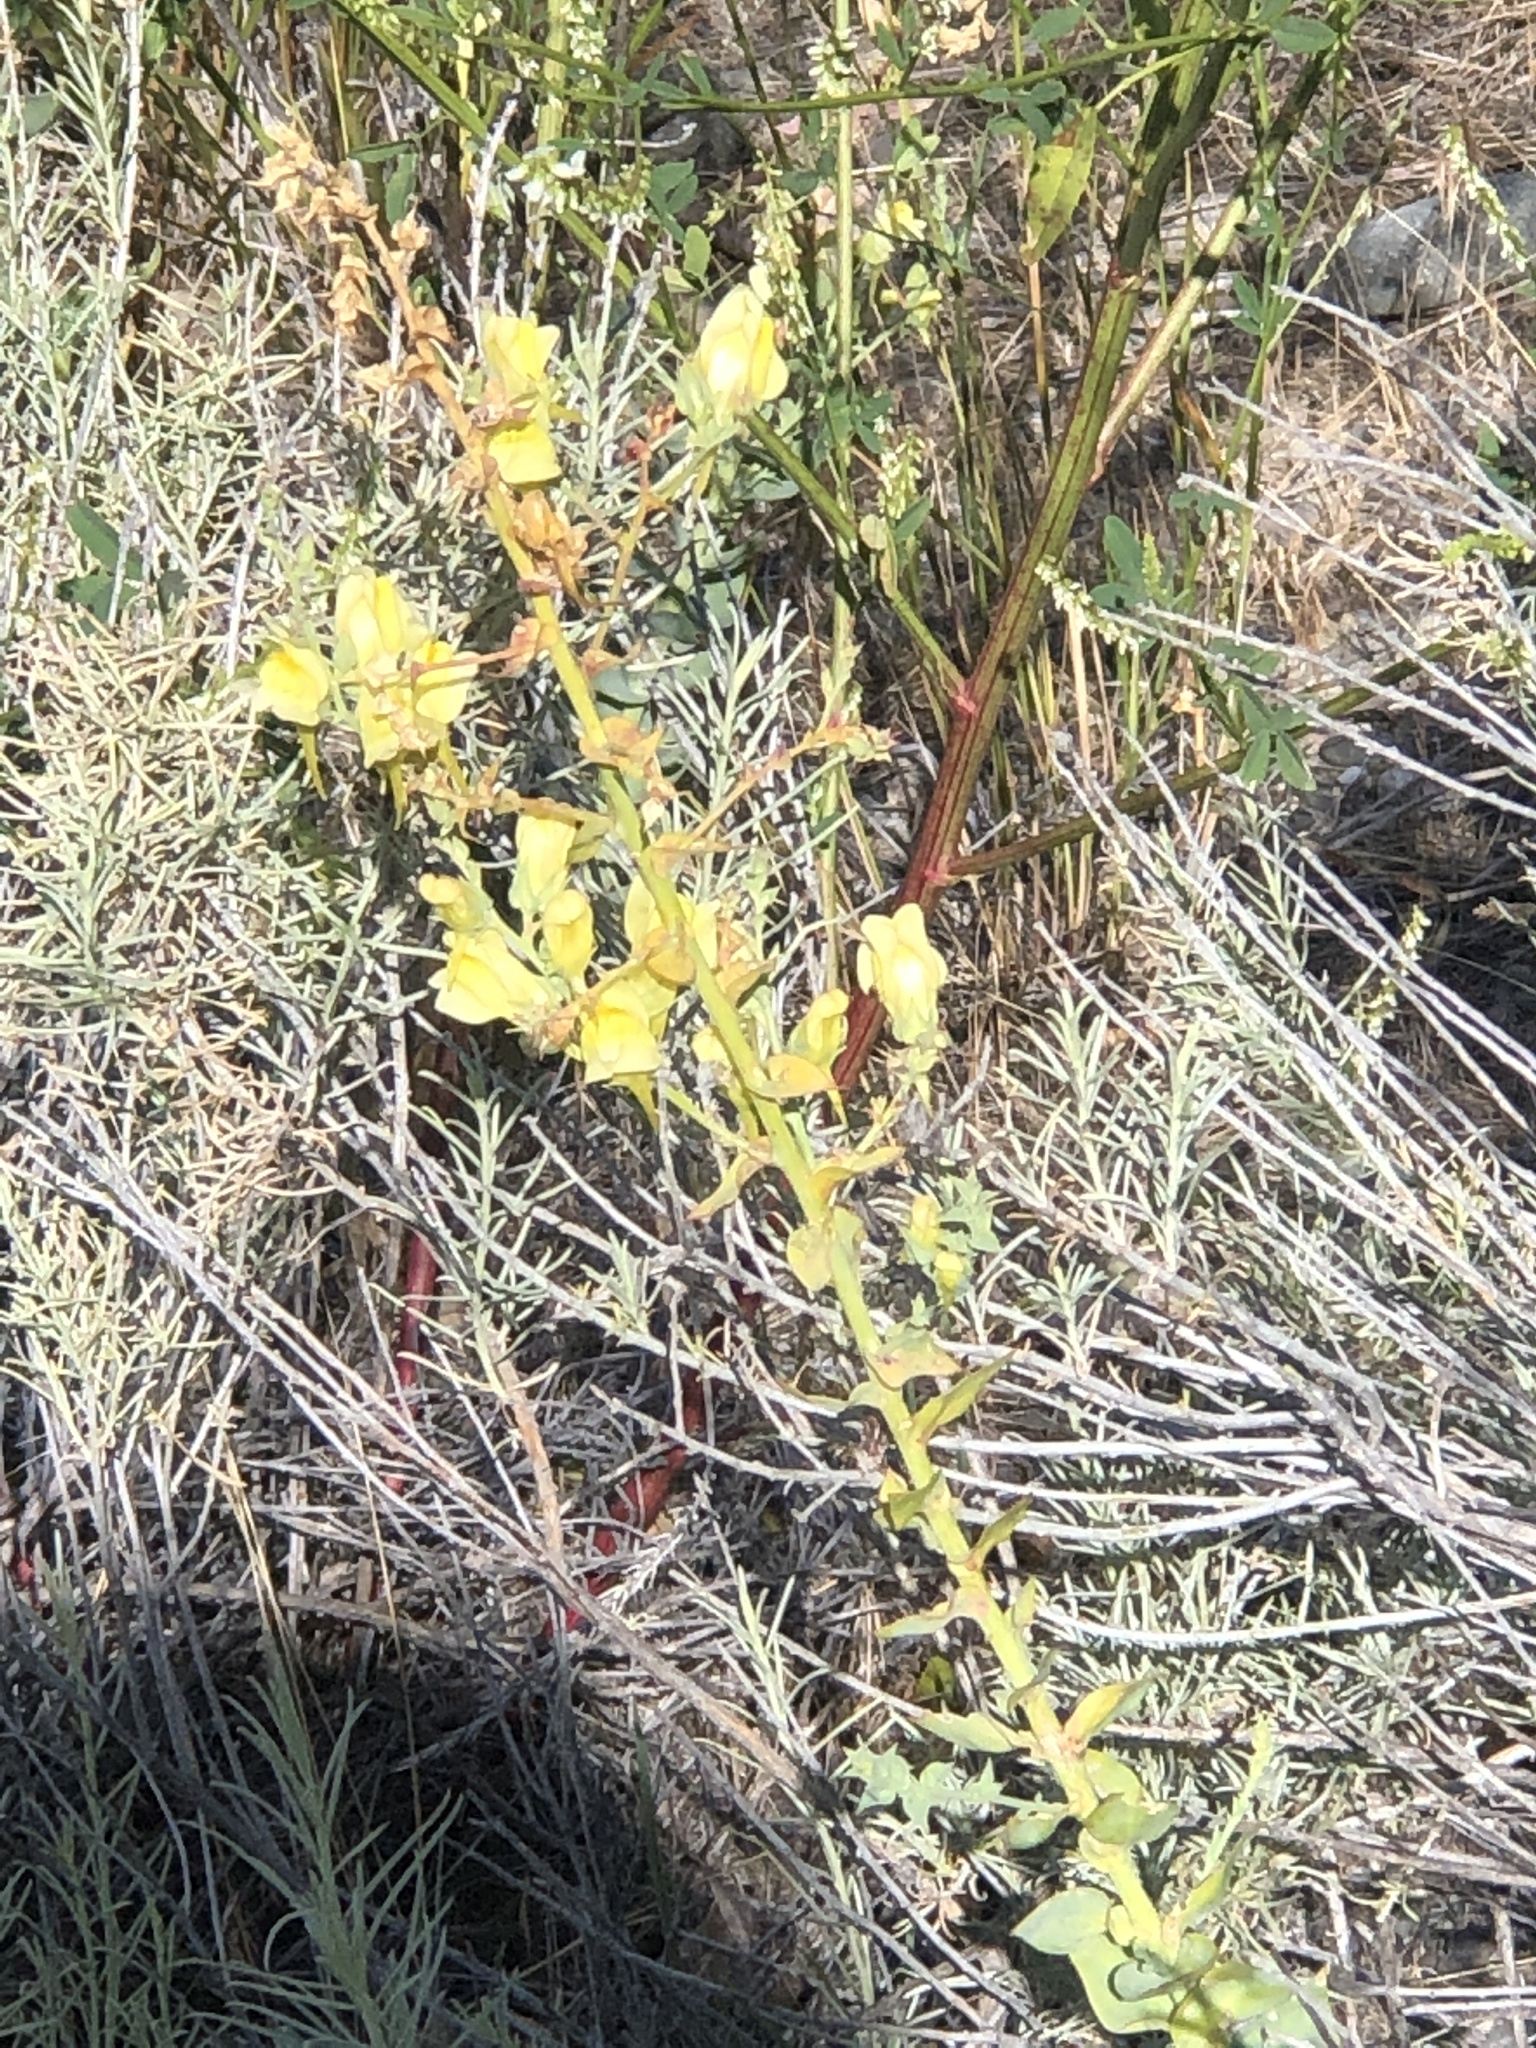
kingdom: Plantae
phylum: Tracheophyta
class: Magnoliopsida
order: Lamiales
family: Plantaginaceae
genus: Linaria
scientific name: Linaria dalmatica
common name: Dalmatian toadflax
